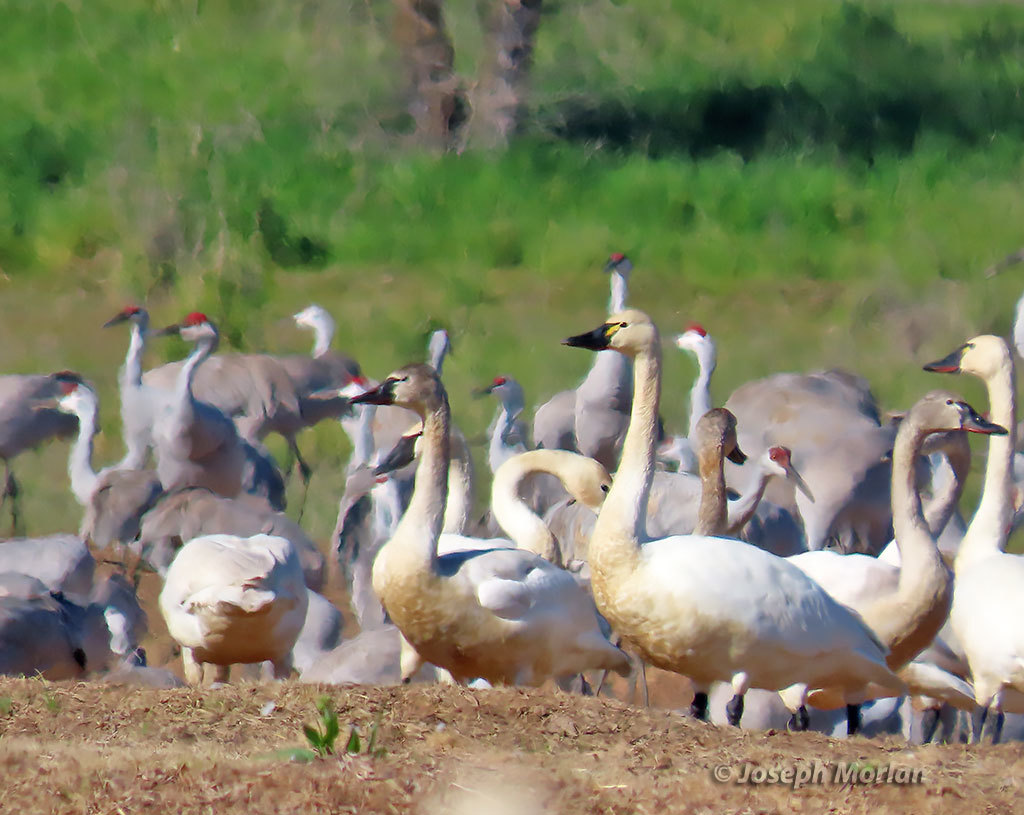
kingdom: Animalia
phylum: Chordata
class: Aves
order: Anseriformes
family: Anatidae
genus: Cygnus
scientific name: Cygnus columbianus
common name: Tundra swan
